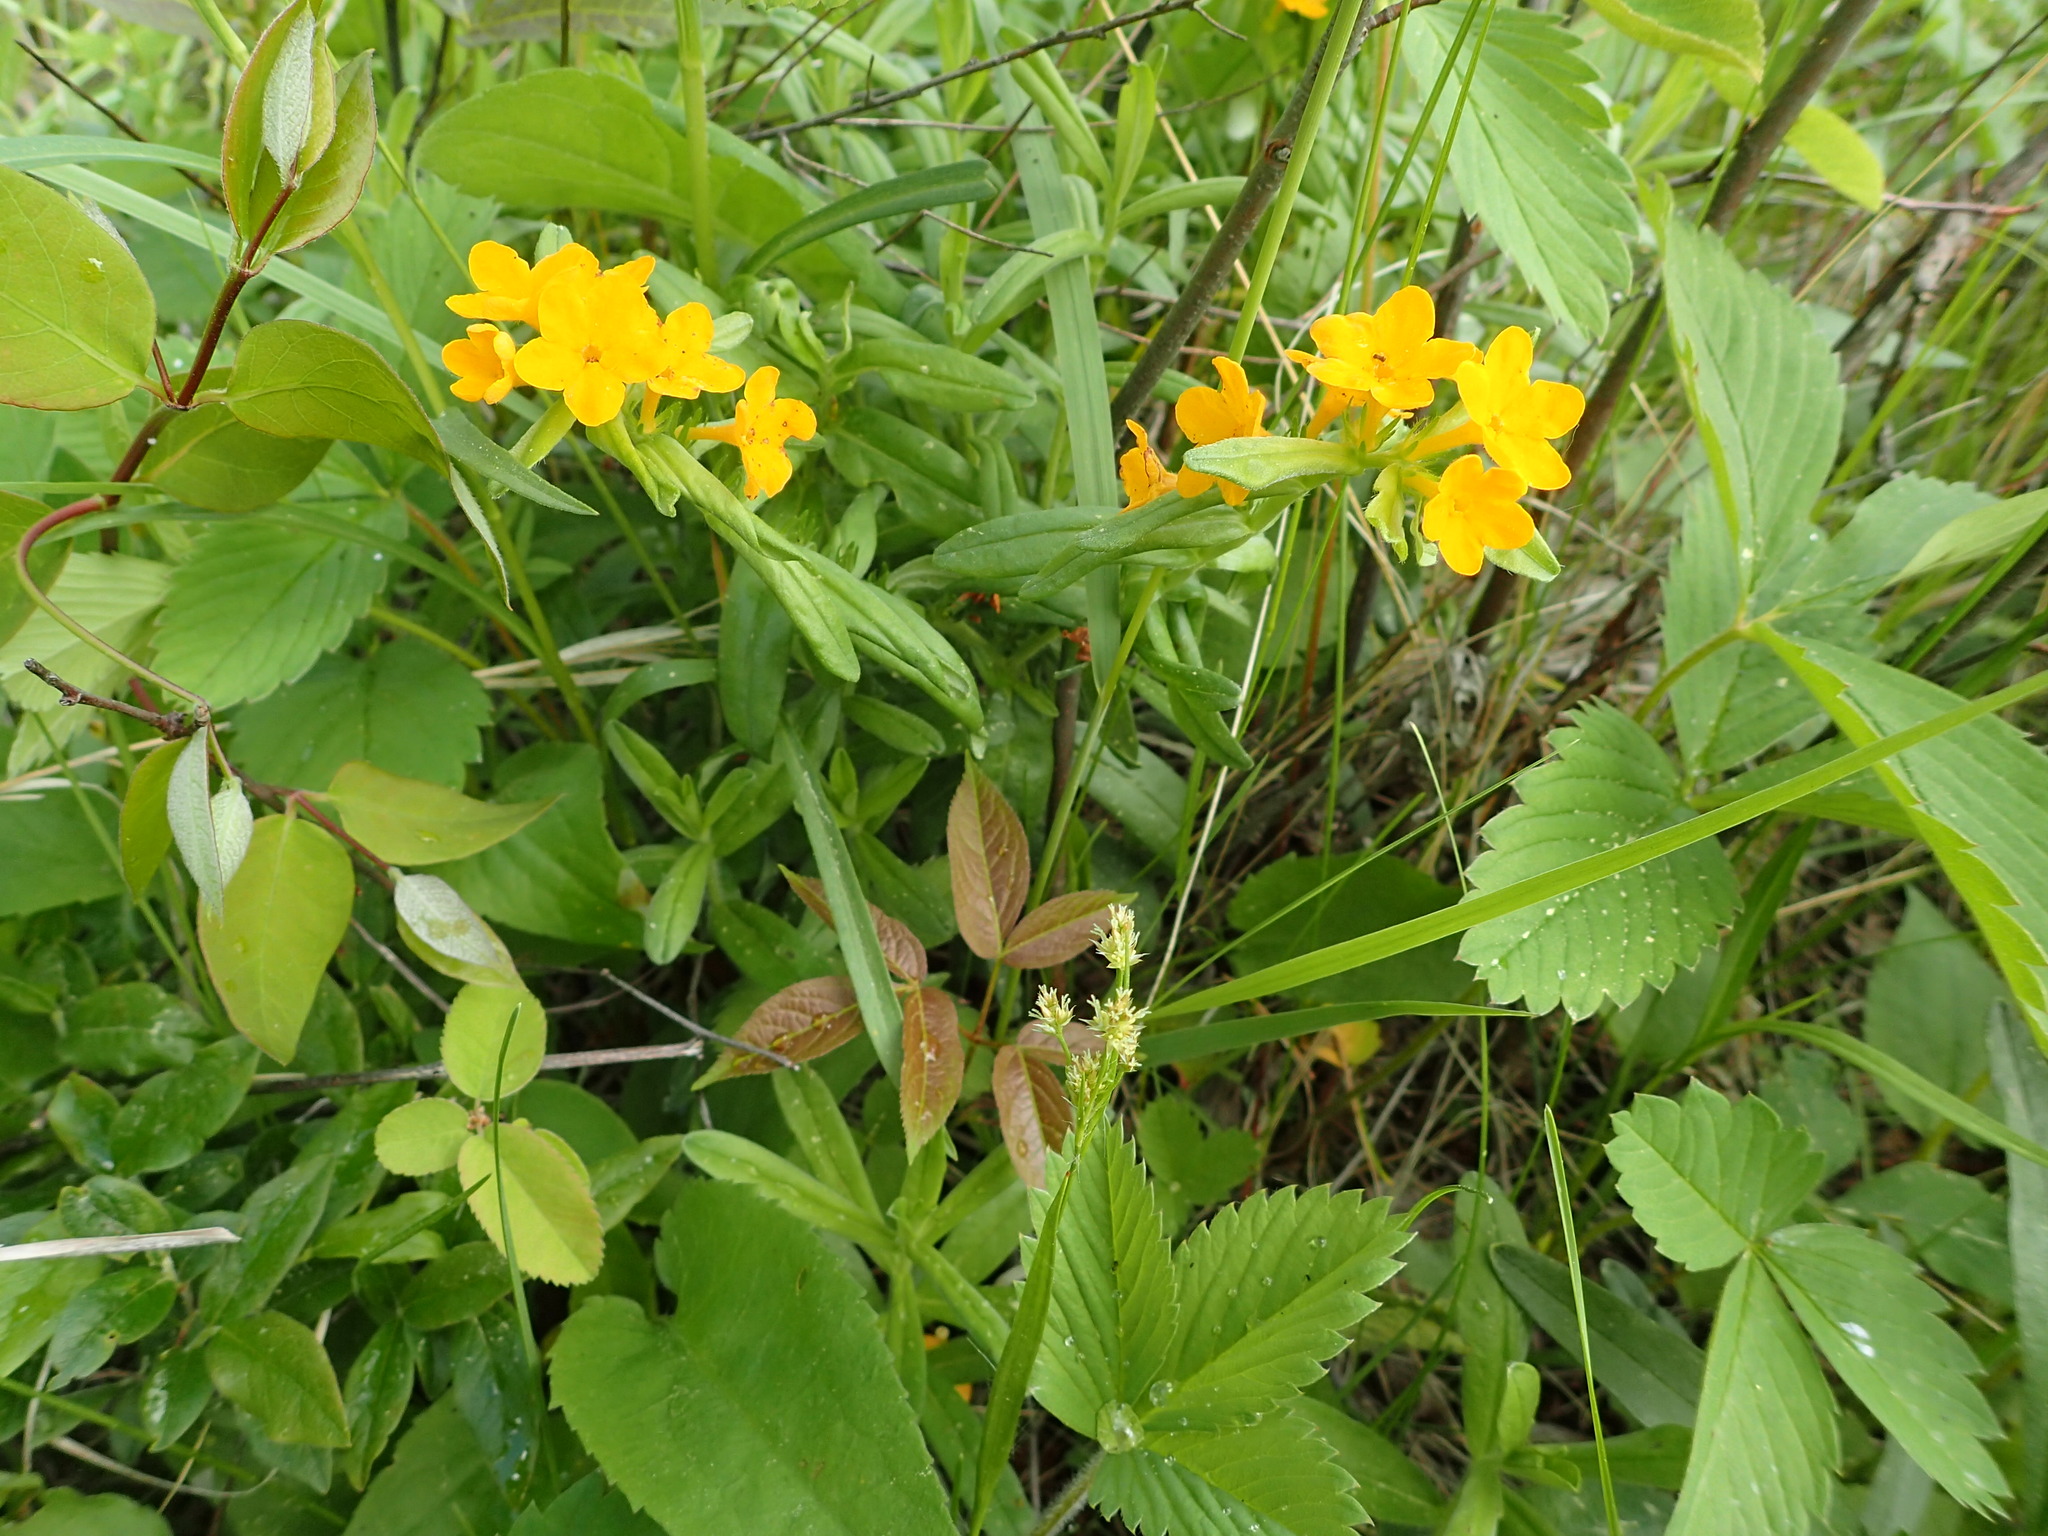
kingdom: Plantae
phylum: Tracheophyta
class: Magnoliopsida
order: Boraginales
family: Boraginaceae
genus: Lithospermum
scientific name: Lithospermum canescens
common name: Hoary puccoon
